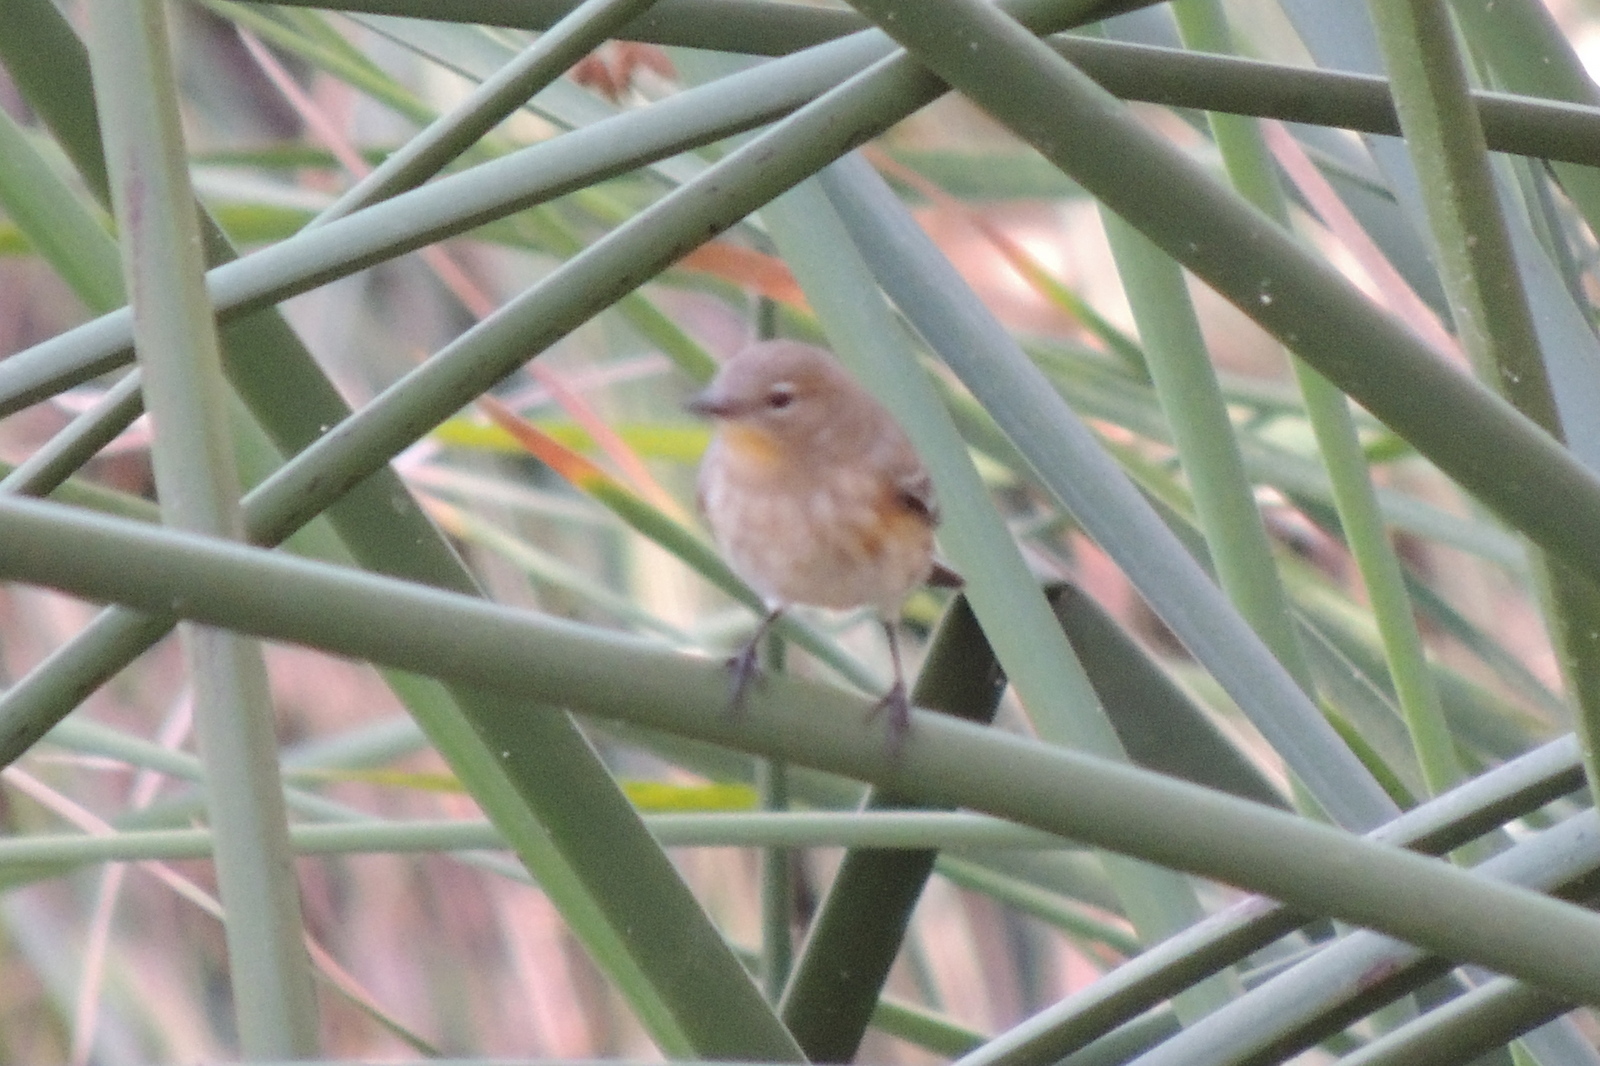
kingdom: Animalia
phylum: Chordata
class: Aves
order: Passeriformes
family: Parulidae
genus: Setophaga
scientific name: Setophaga coronata
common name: Myrtle warbler
